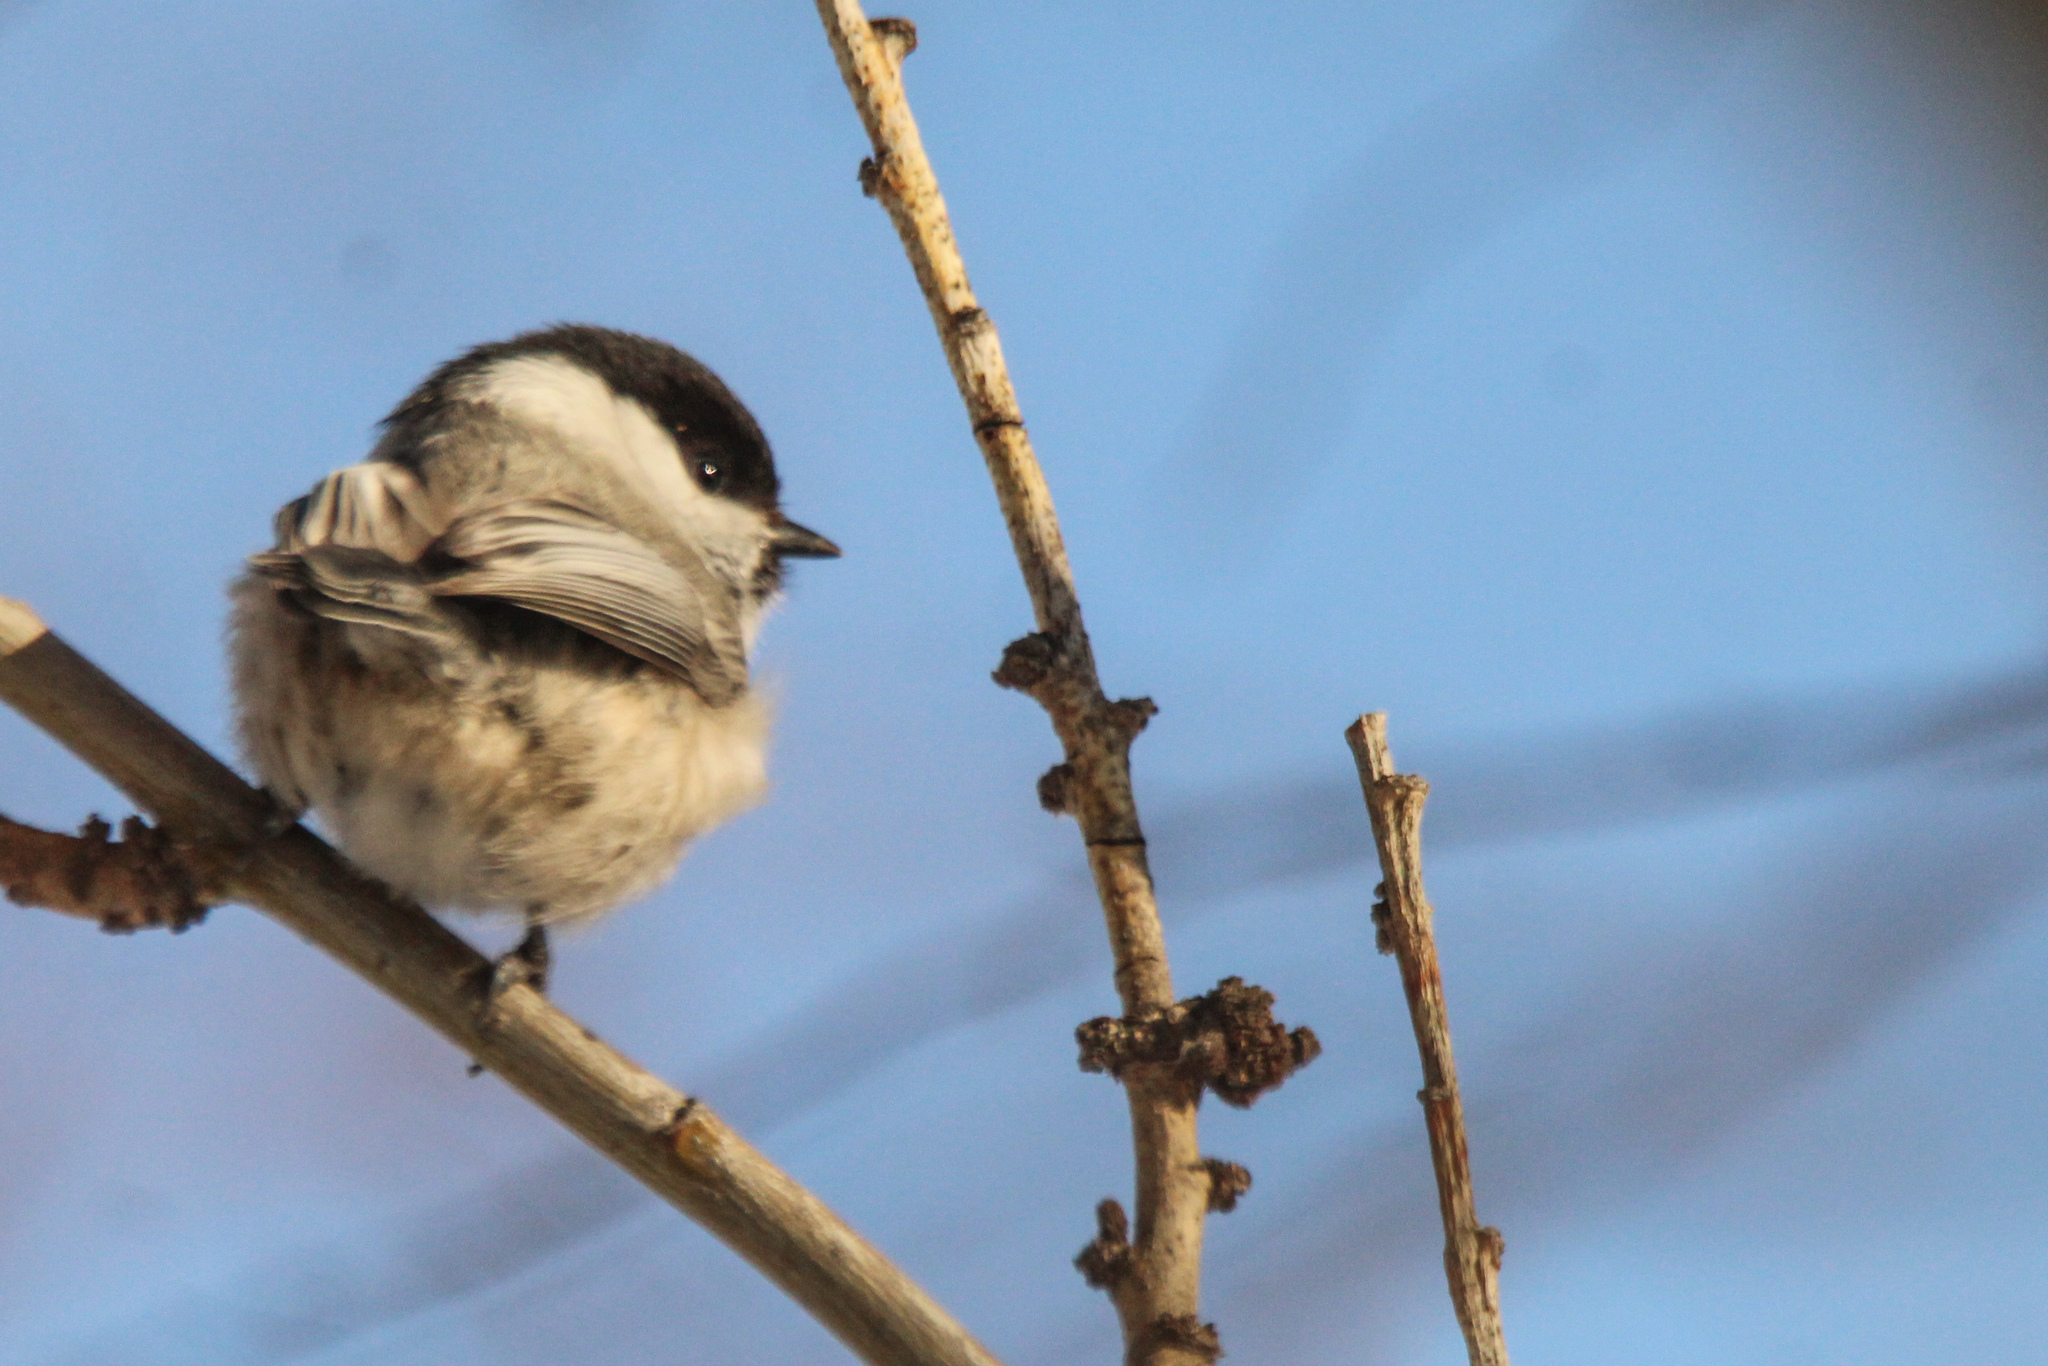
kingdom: Animalia
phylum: Chordata
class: Aves
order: Passeriformes
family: Paridae
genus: Poecile
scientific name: Poecile montanus
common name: Willow tit
